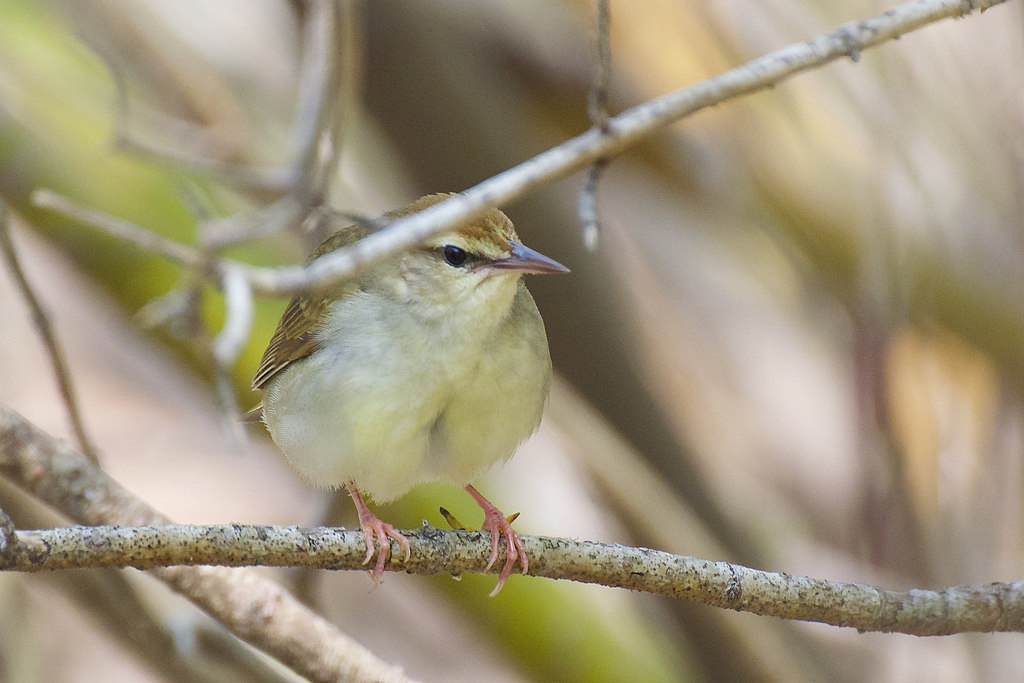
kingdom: Animalia
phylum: Chordata
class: Aves
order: Passeriformes
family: Parulidae
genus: Limnothlypis
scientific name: Limnothlypis swainsonii
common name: Swainson's warbler
